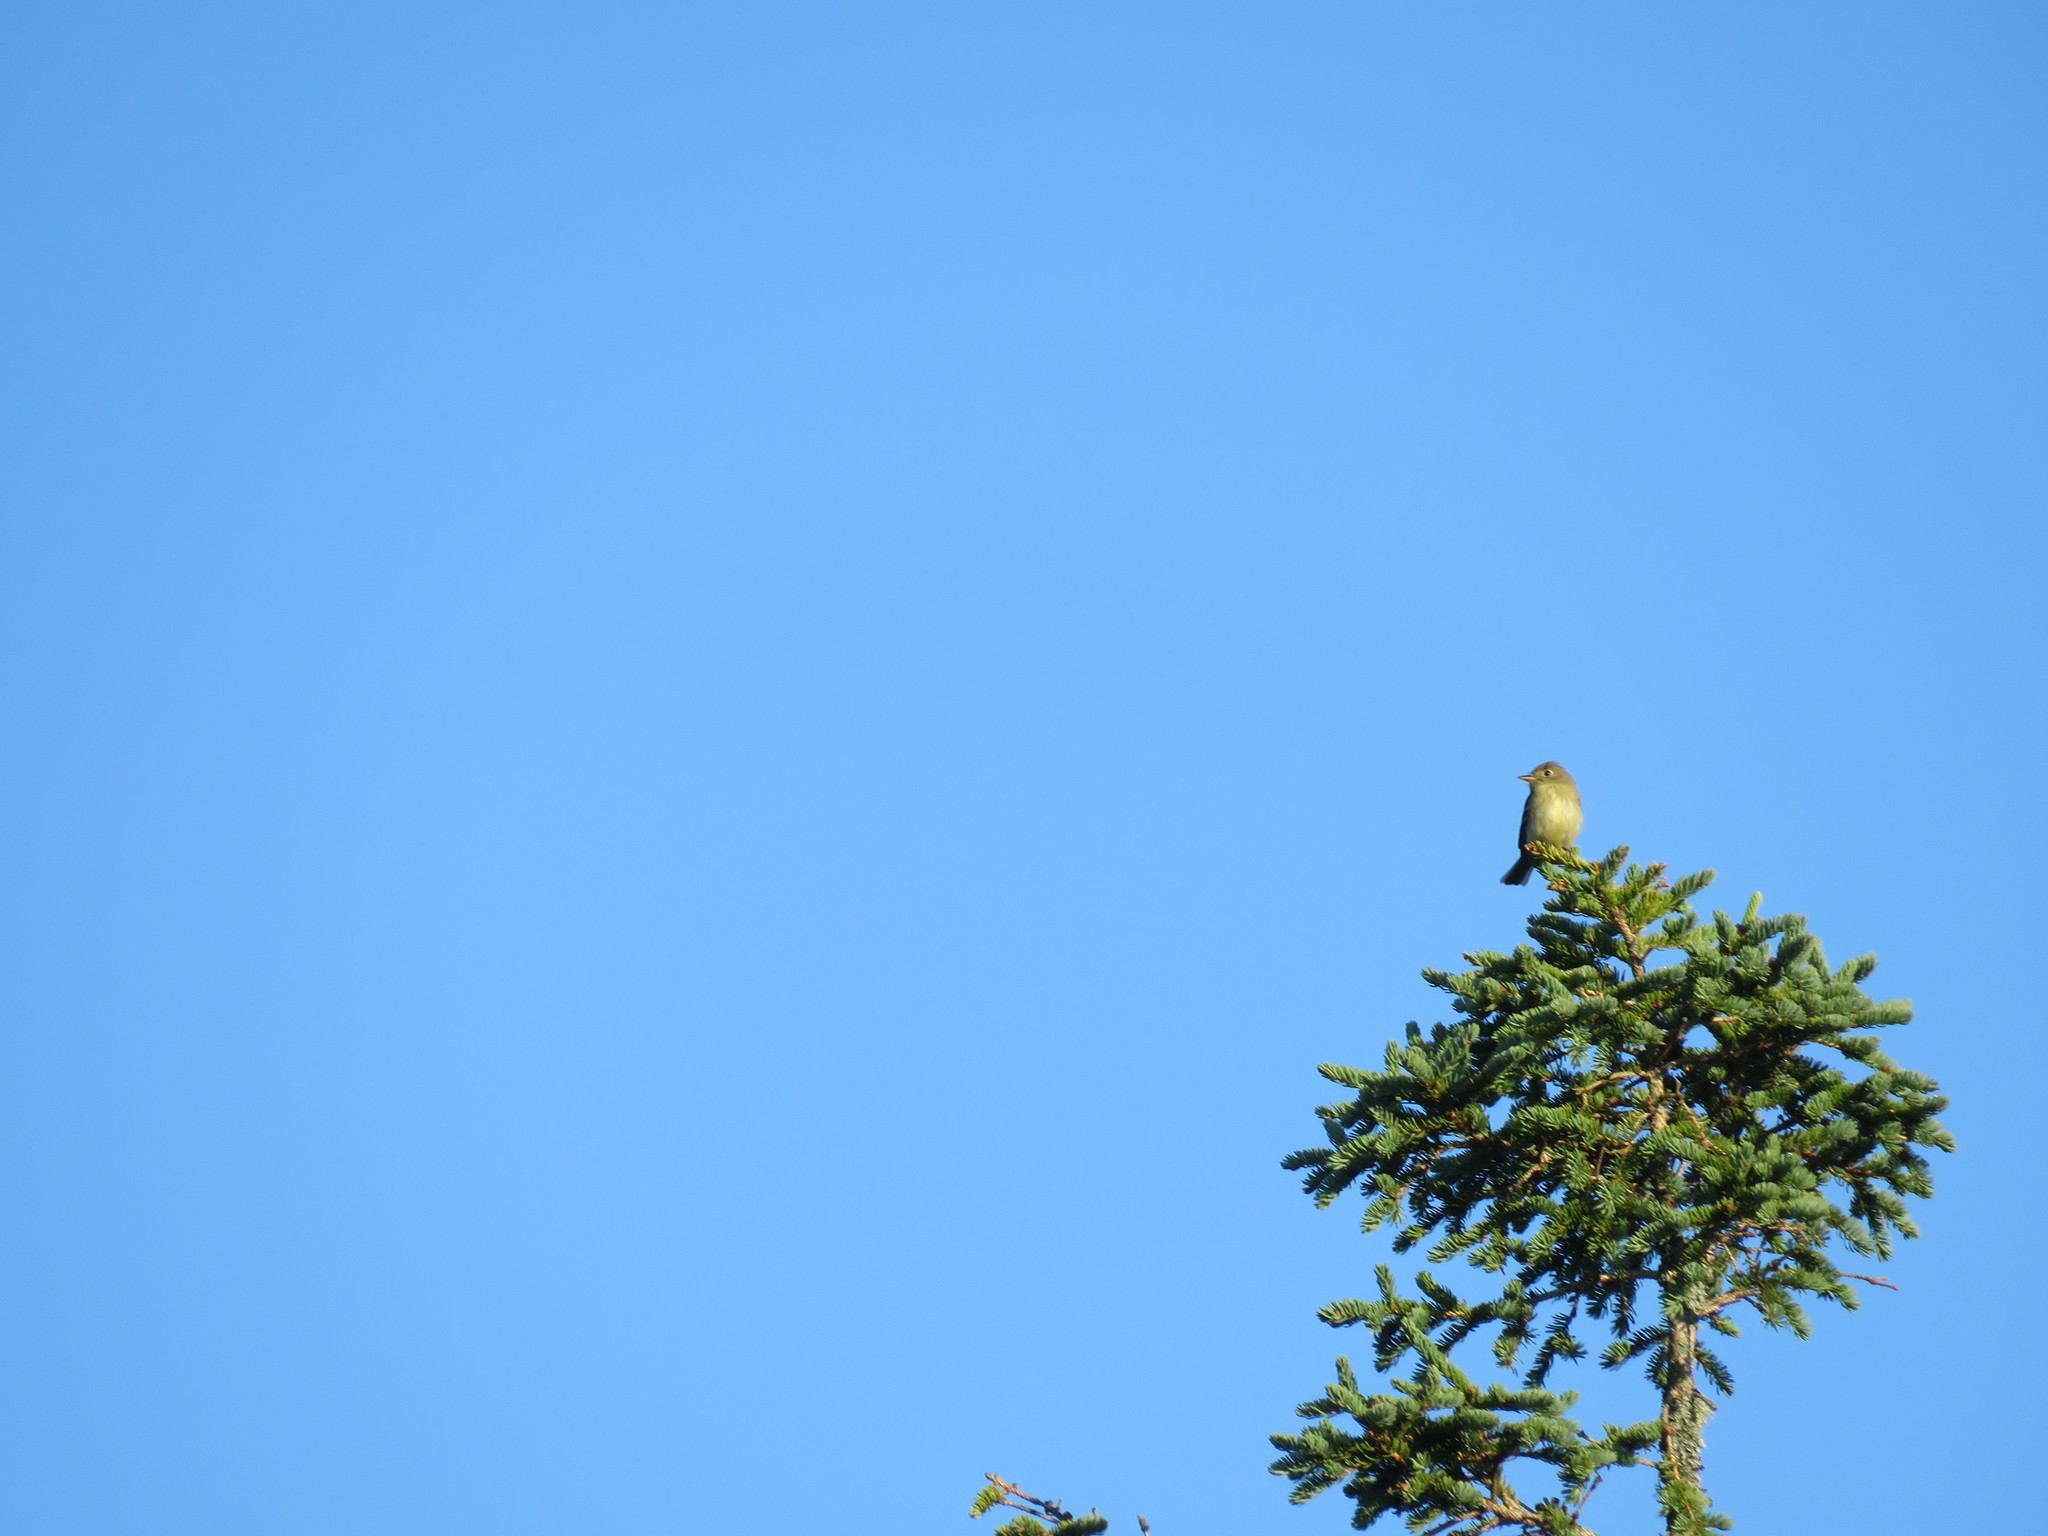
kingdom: Animalia
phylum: Chordata
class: Aves
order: Passeriformes
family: Tyrannidae
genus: Empidonax
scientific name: Empidonax minimus
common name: Least flycatcher
